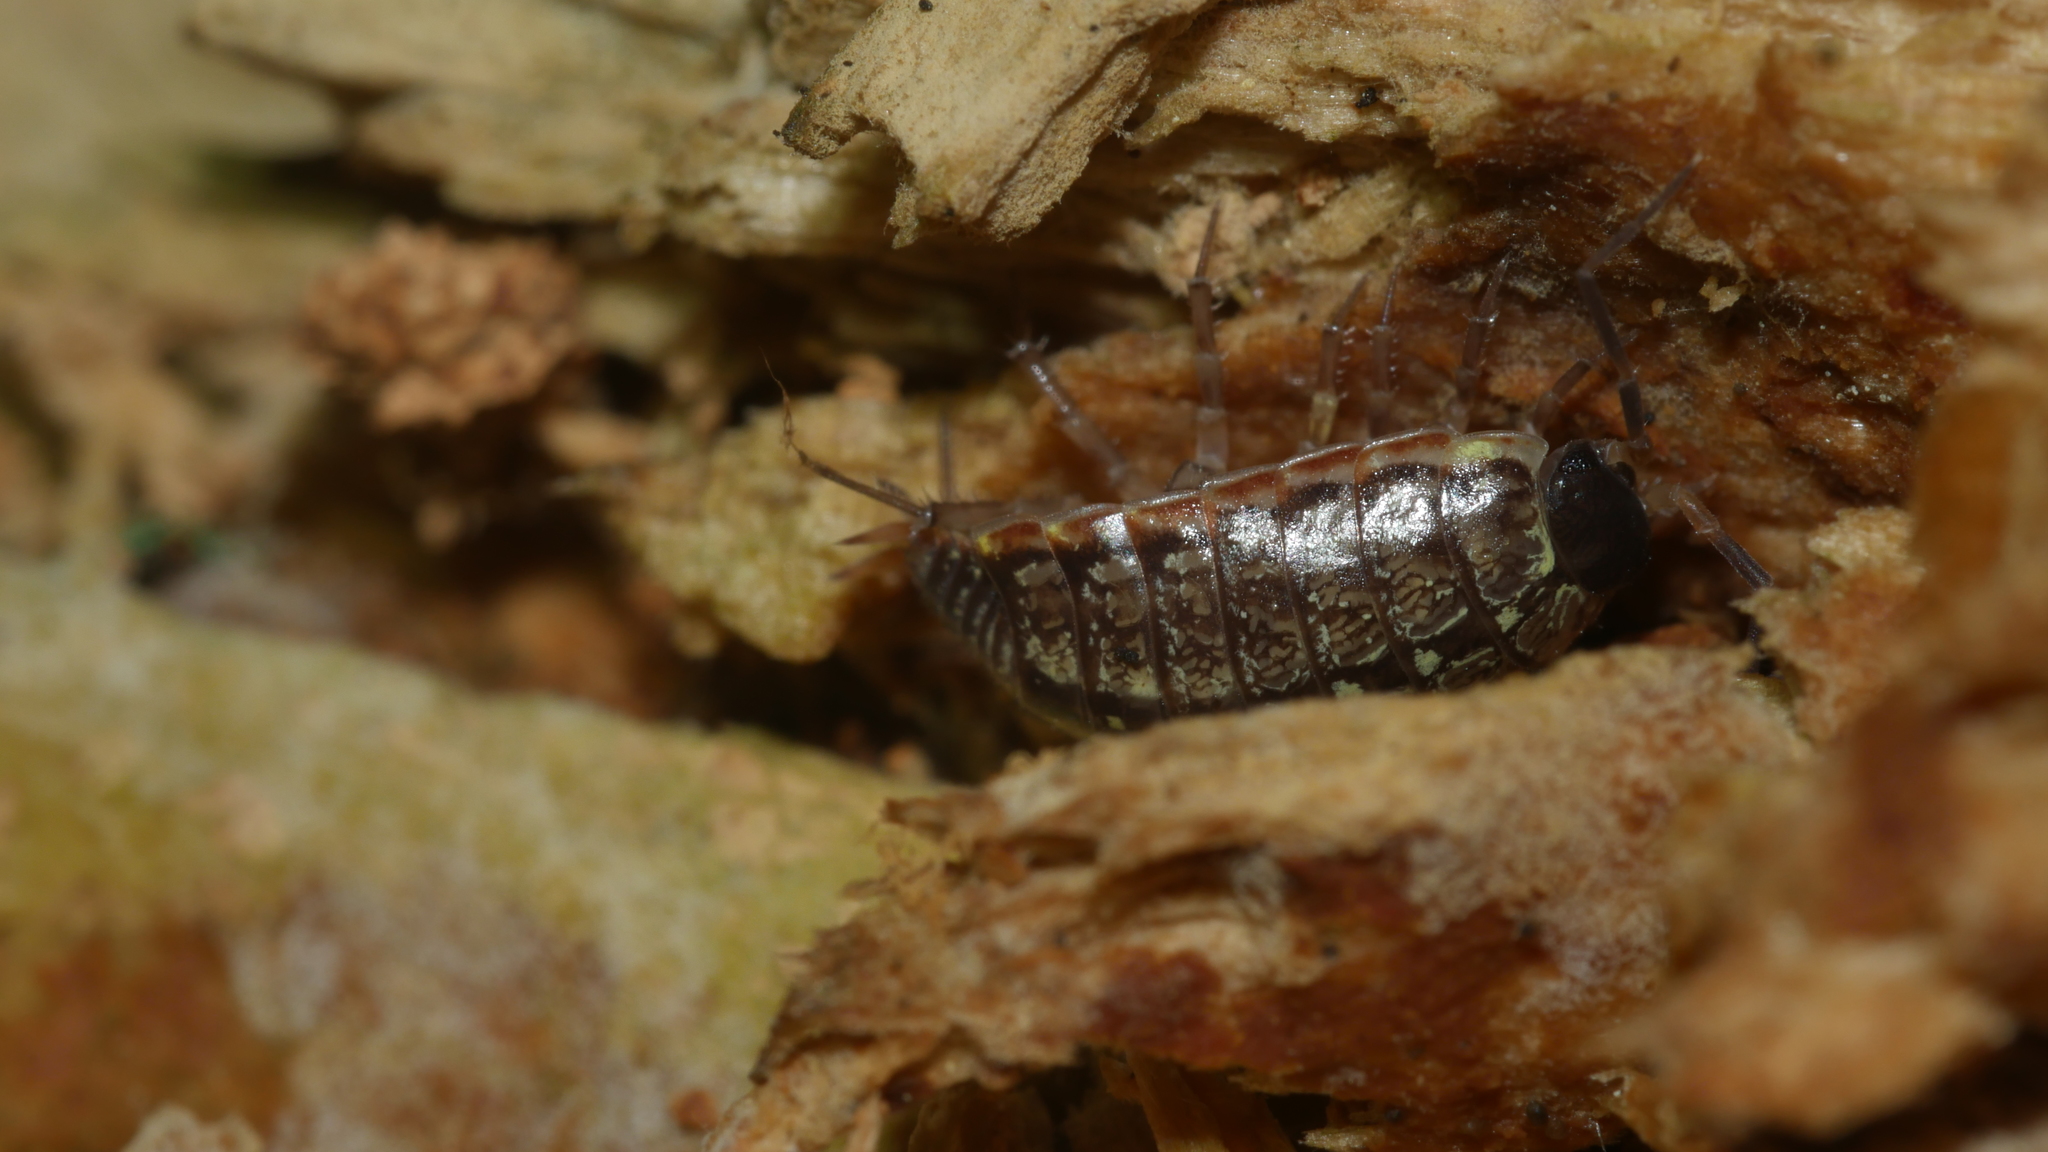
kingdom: Animalia
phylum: Arthropoda
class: Malacostraca
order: Isopoda
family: Philosciidae
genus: Philoscia
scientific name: Philoscia muscorum
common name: Common striped woodlouse
